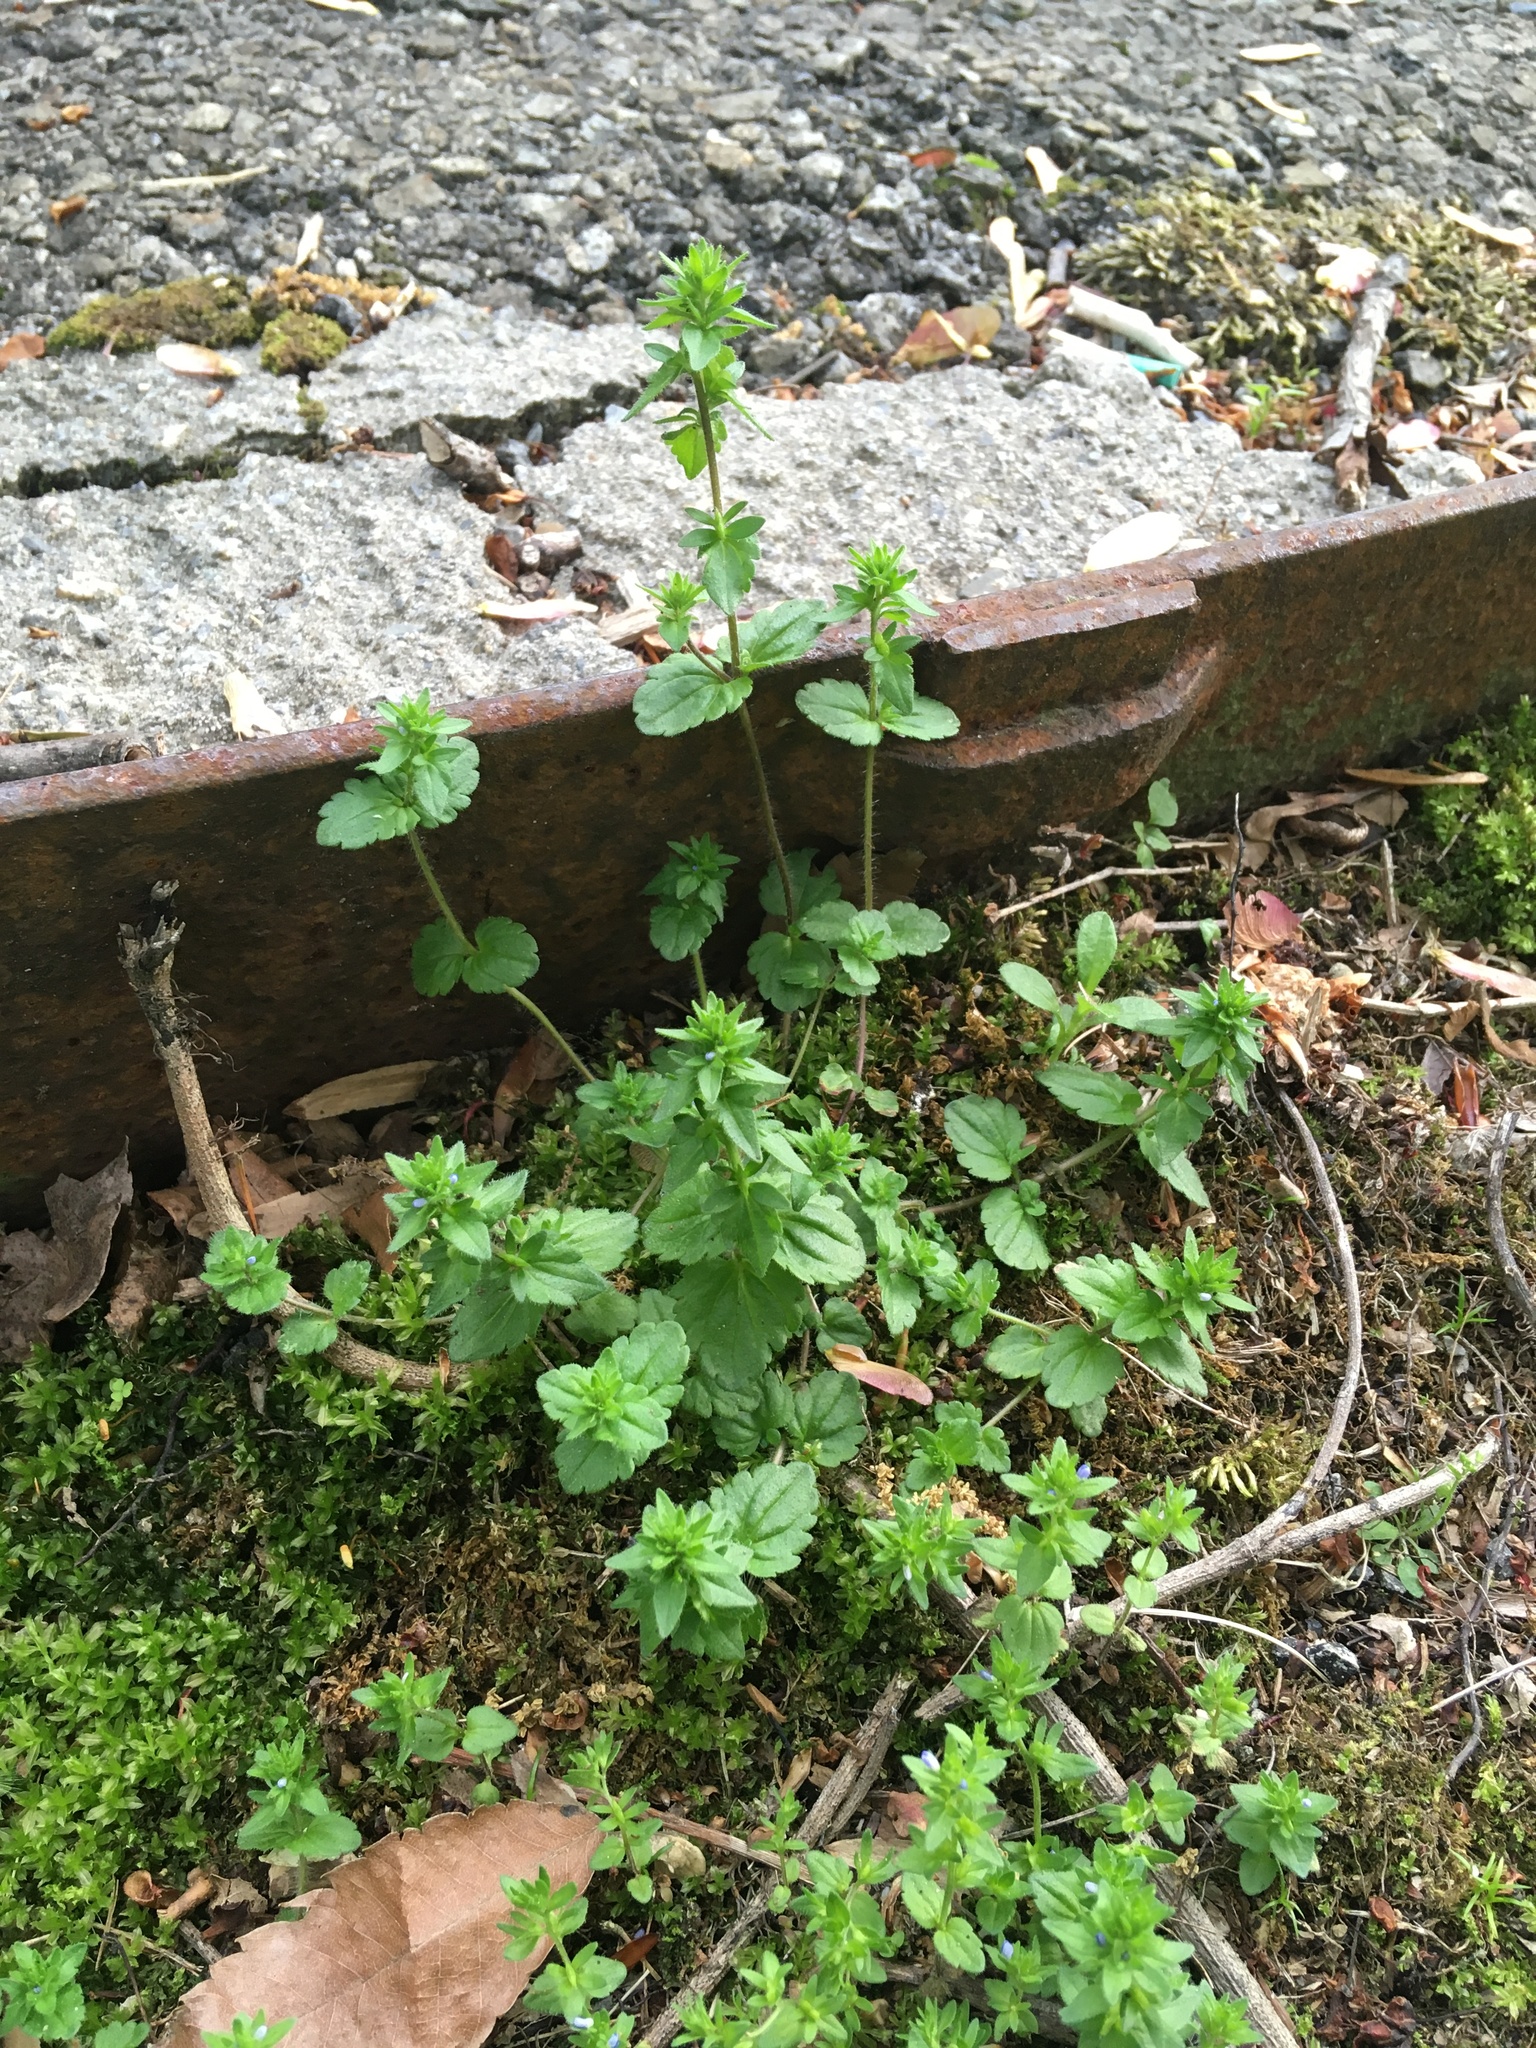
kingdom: Plantae
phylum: Tracheophyta
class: Magnoliopsida
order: Lamiales
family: Plantaginaceae
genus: Veronica
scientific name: Veronica arvensis
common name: Corn speedwell
